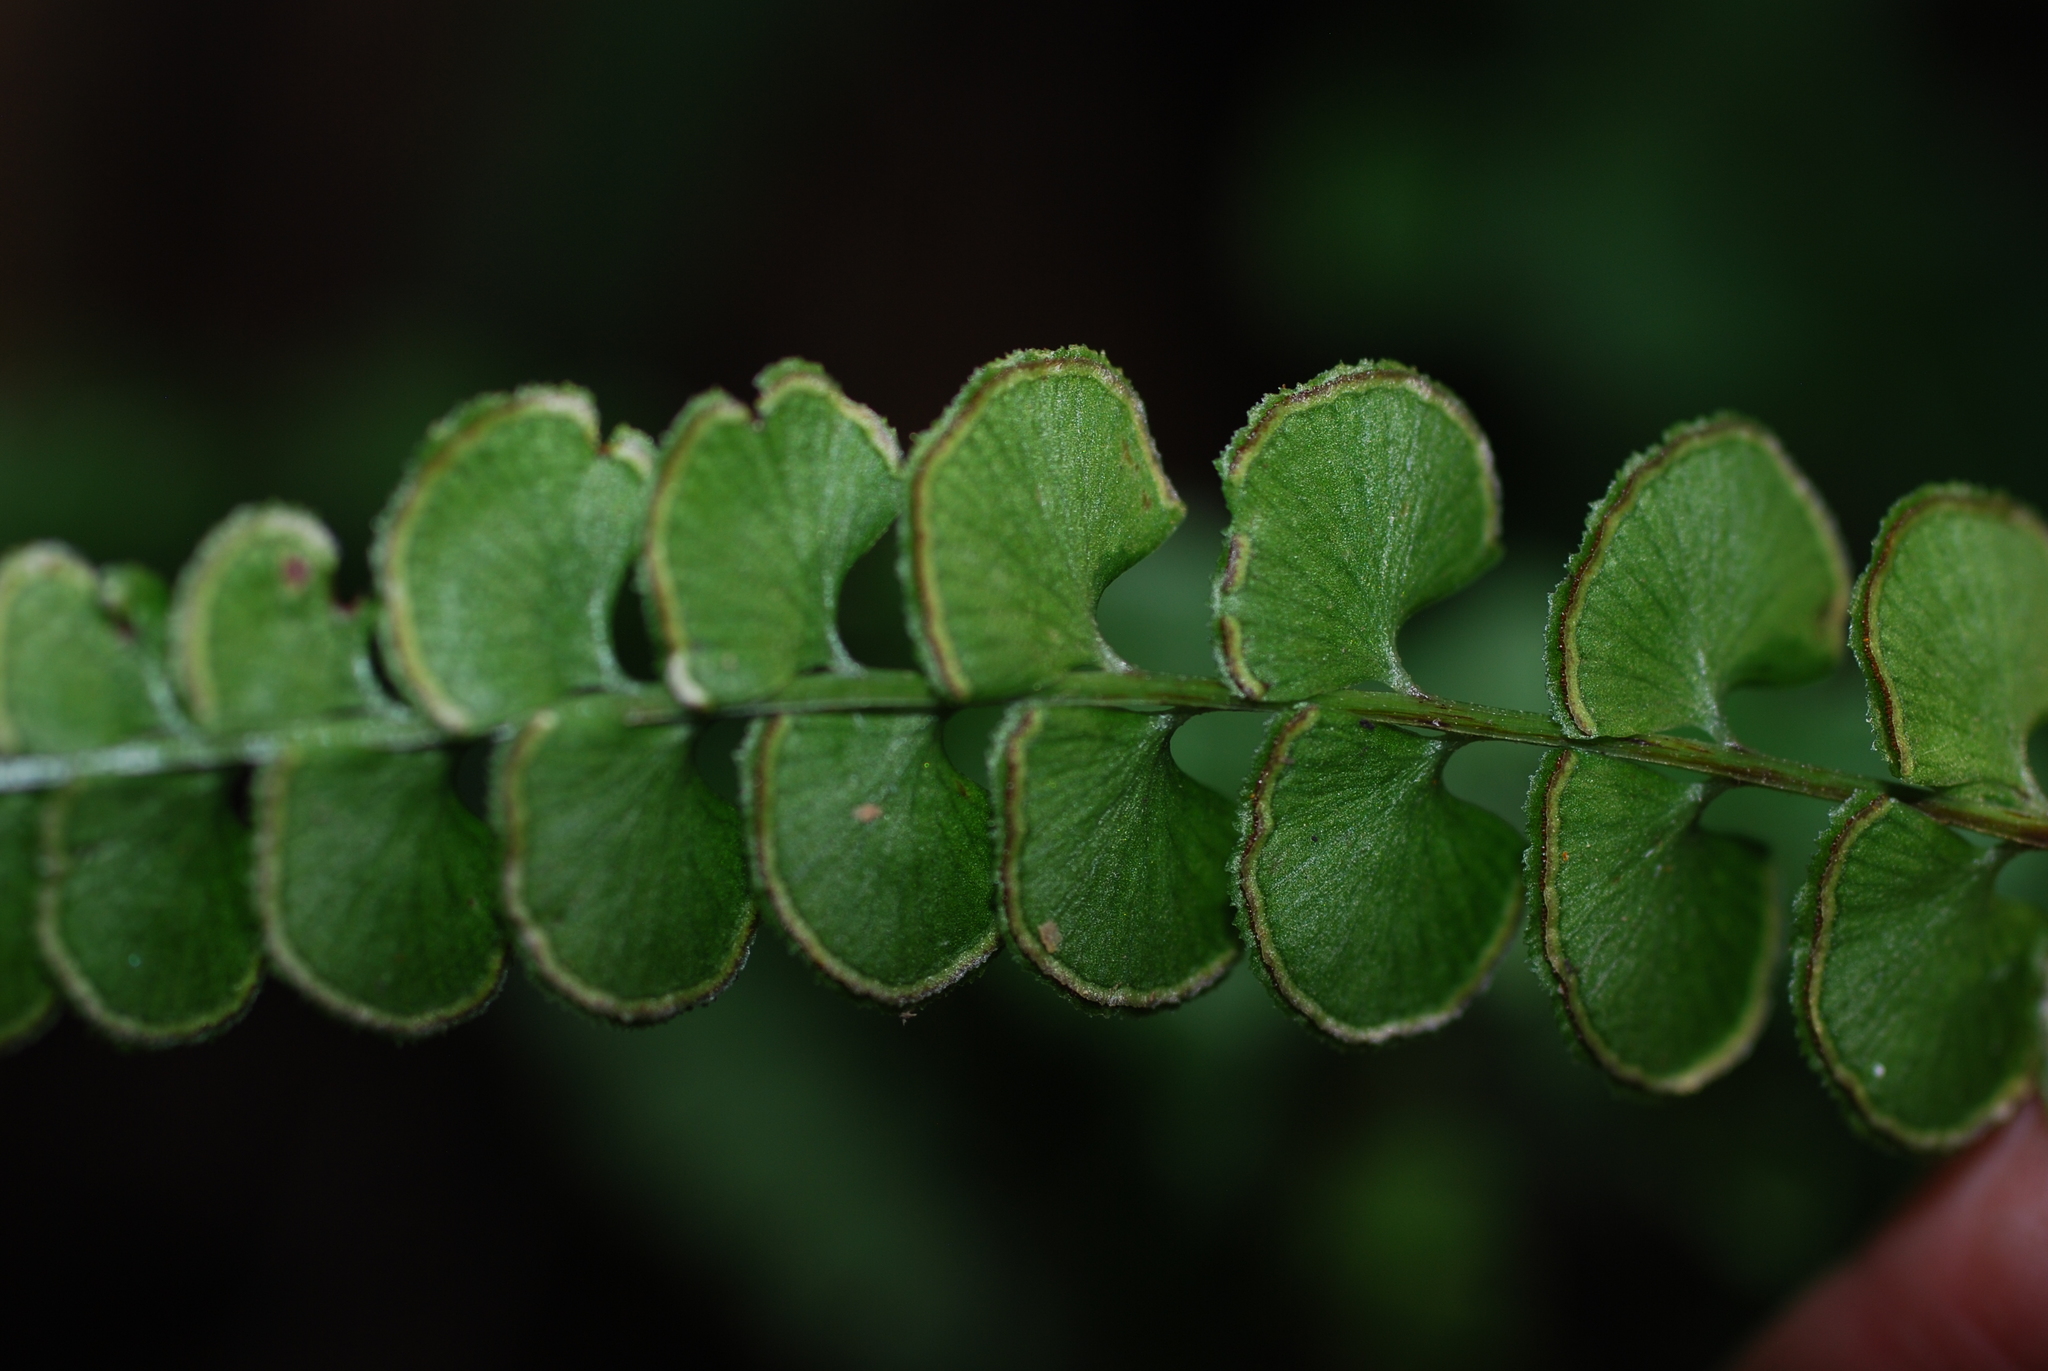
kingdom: Plantae
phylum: Tracheophyta
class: Polypodiopsida
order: Polypodiales
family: Lindsaeaceae
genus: Lindsaea
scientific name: Lindsaea orbiculata
